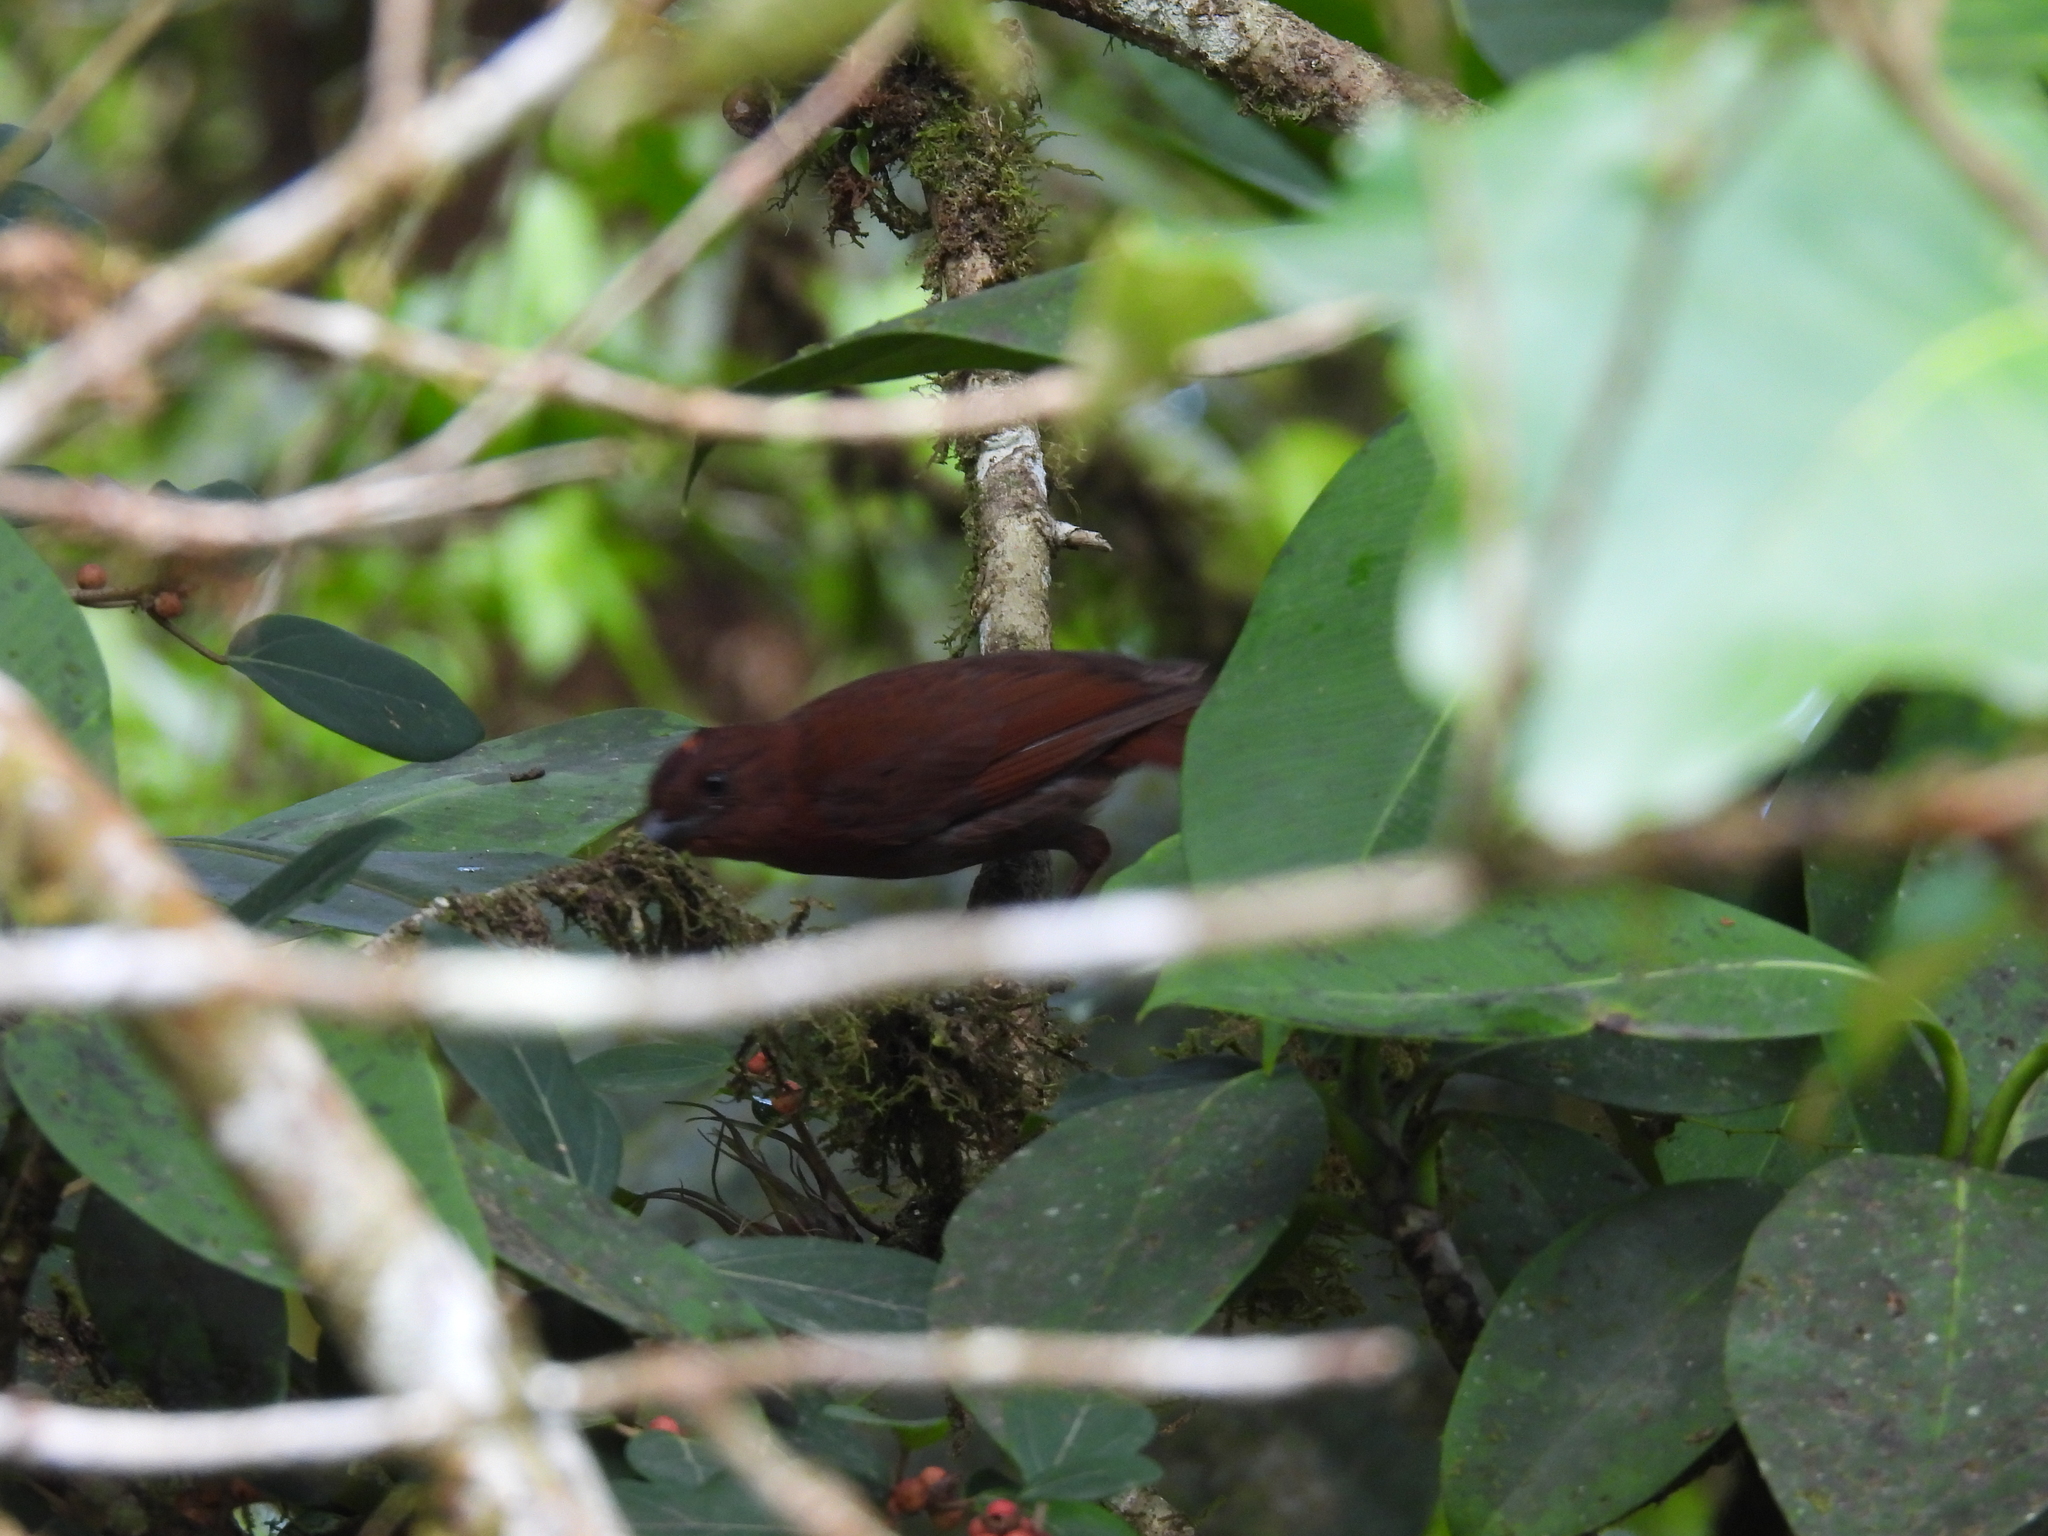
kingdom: Animalia
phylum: Chordata
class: Aves
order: Passeriformes
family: Cardinalidae
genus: Habia
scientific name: Habia rubica
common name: Red-crowned ant-tanager
